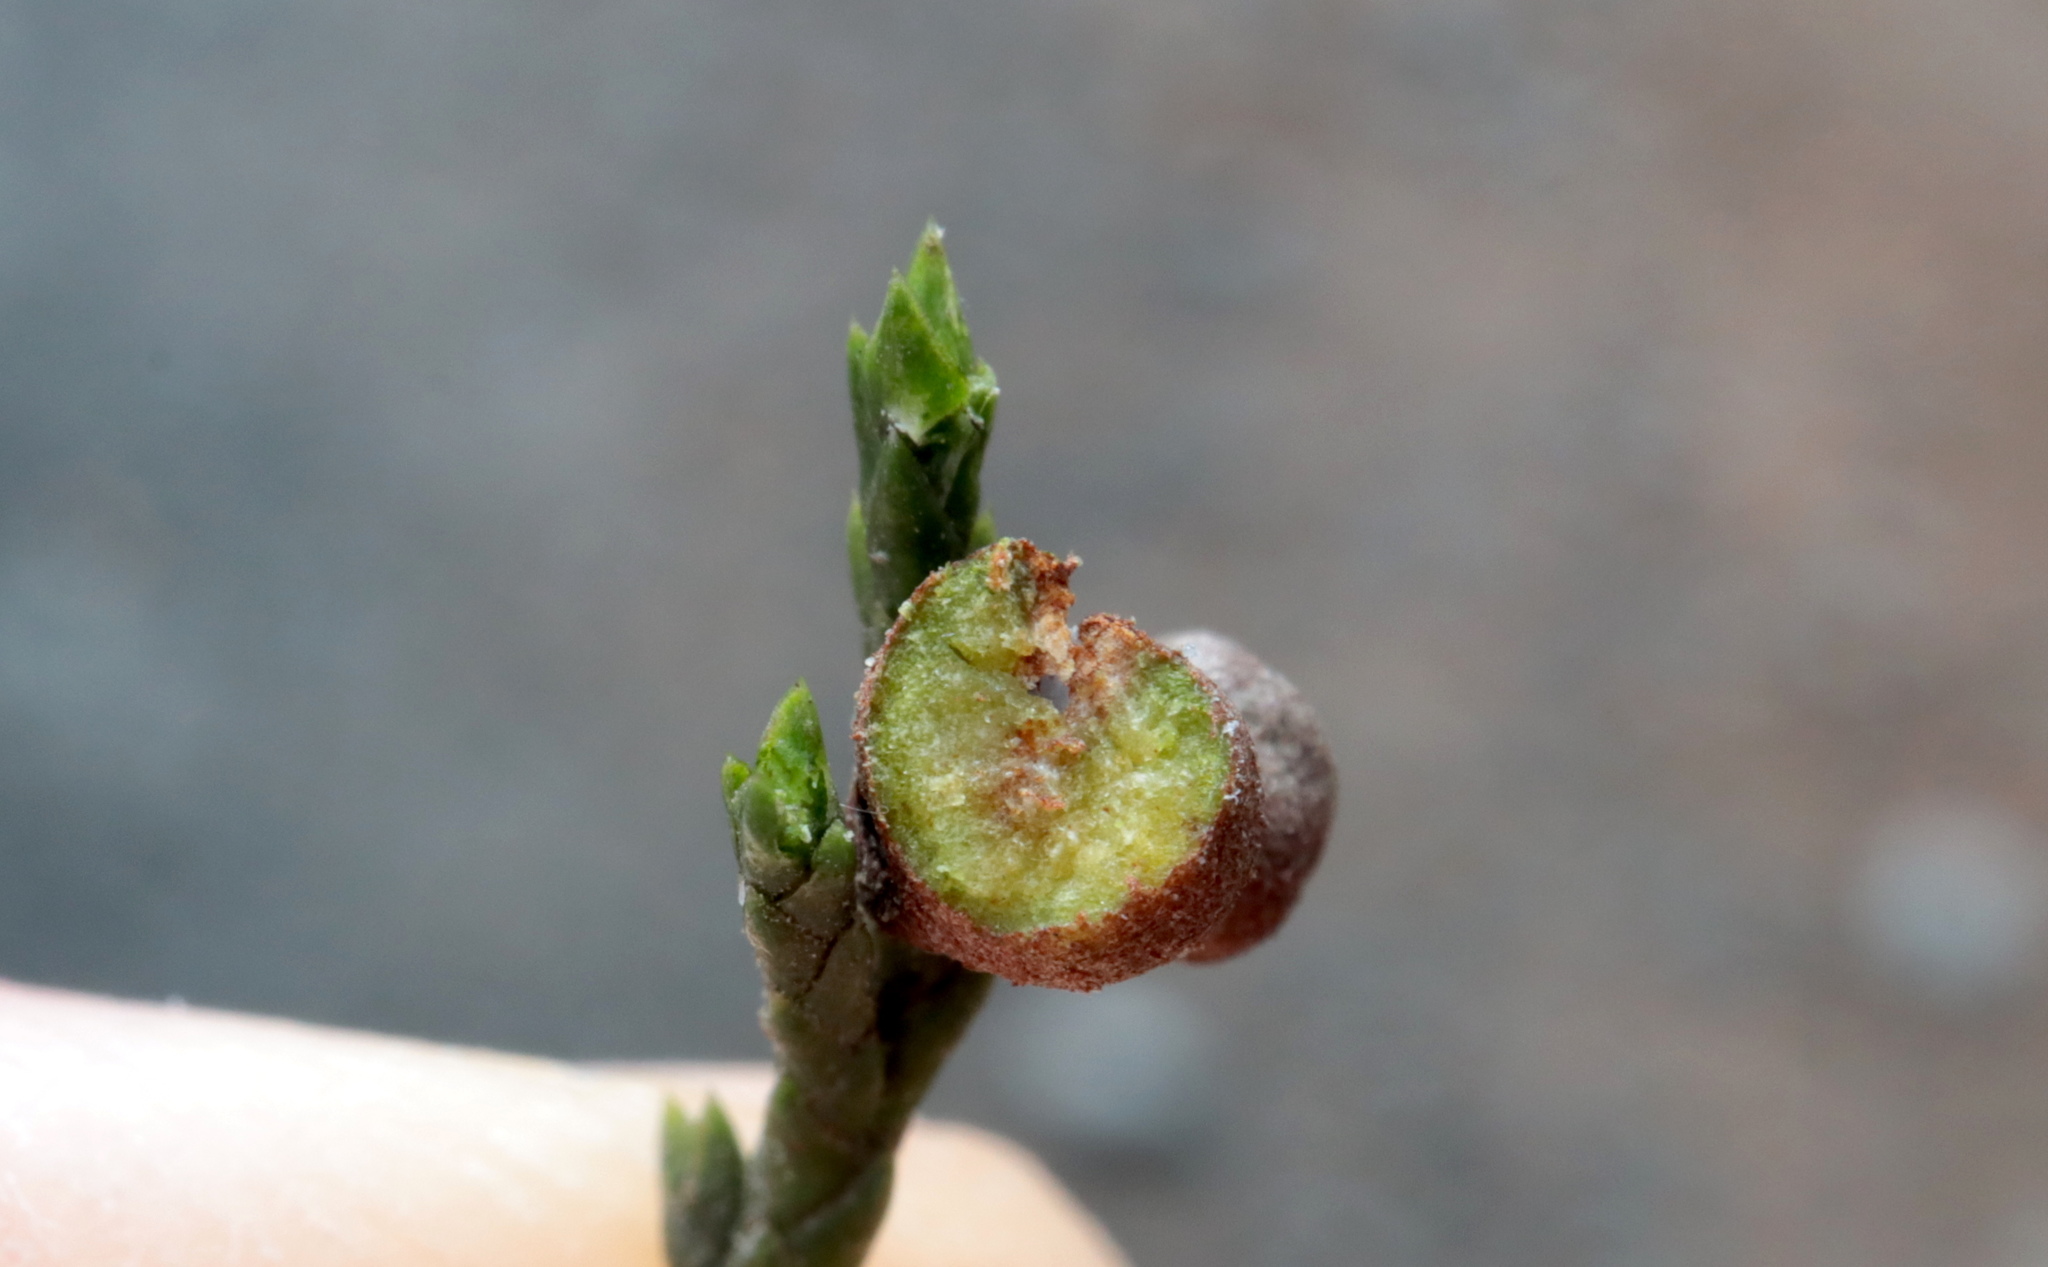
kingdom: Fungi
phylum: Basidiomycota
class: Pucciniomycetes
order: Pucciniales
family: Gymnosporangiaceae
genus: Gymnosporangium
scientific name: Gymnosporangium juniperi-virginianae
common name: Juniper-apple rust
